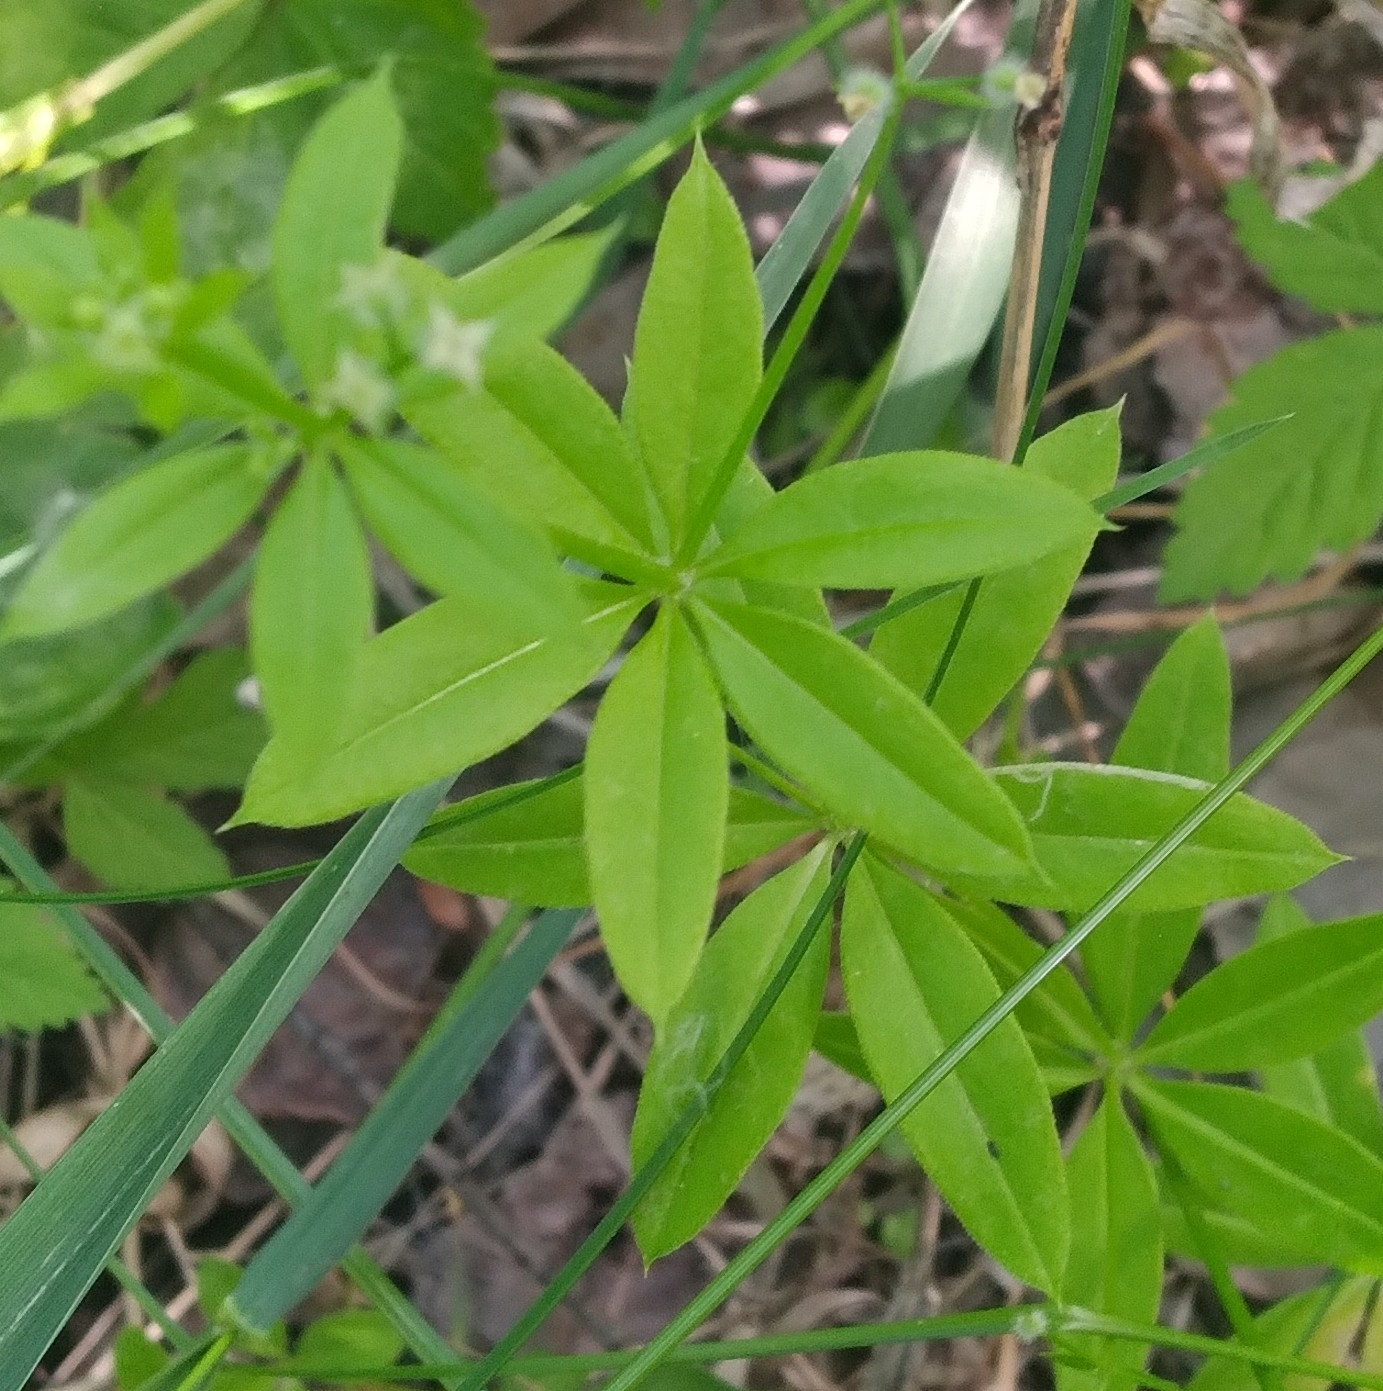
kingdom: Plantae
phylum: Tracheophyta
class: Magnoliopsida
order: Gentianales
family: Rubiaceae
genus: Galium
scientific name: Galium triflorum
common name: Fragrant bedstraw
